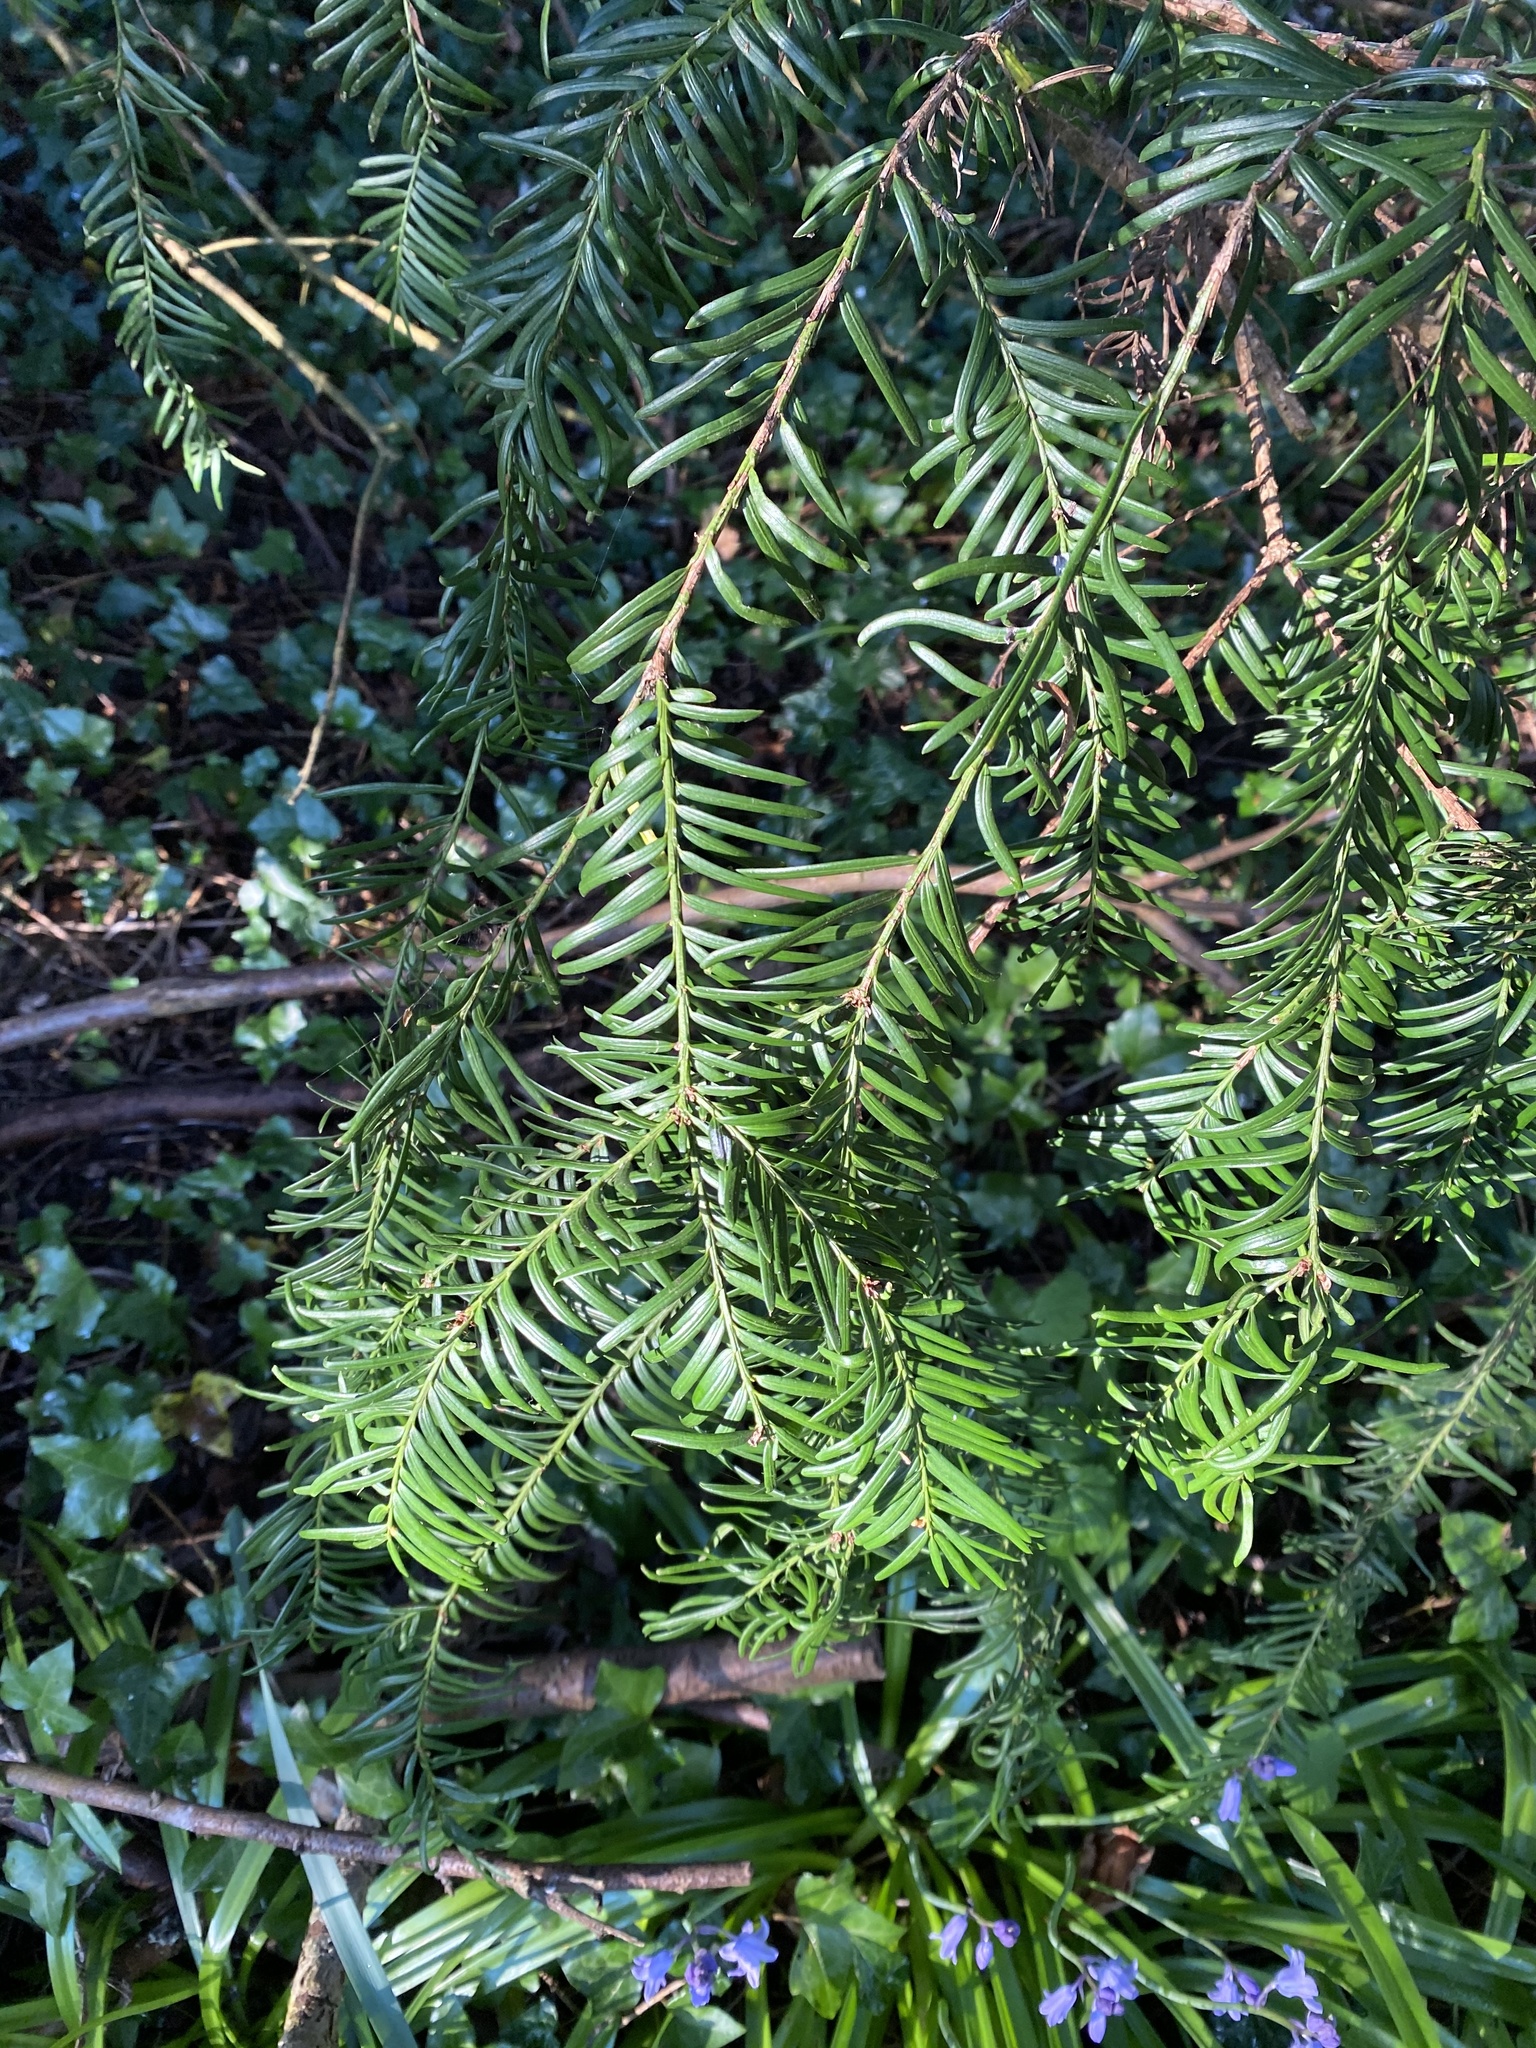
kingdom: Plantae
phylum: Tracheophyta
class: Pinopsida
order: Pinales
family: Taxaceae
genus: Taxus
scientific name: Taxus baccata
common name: Yew
